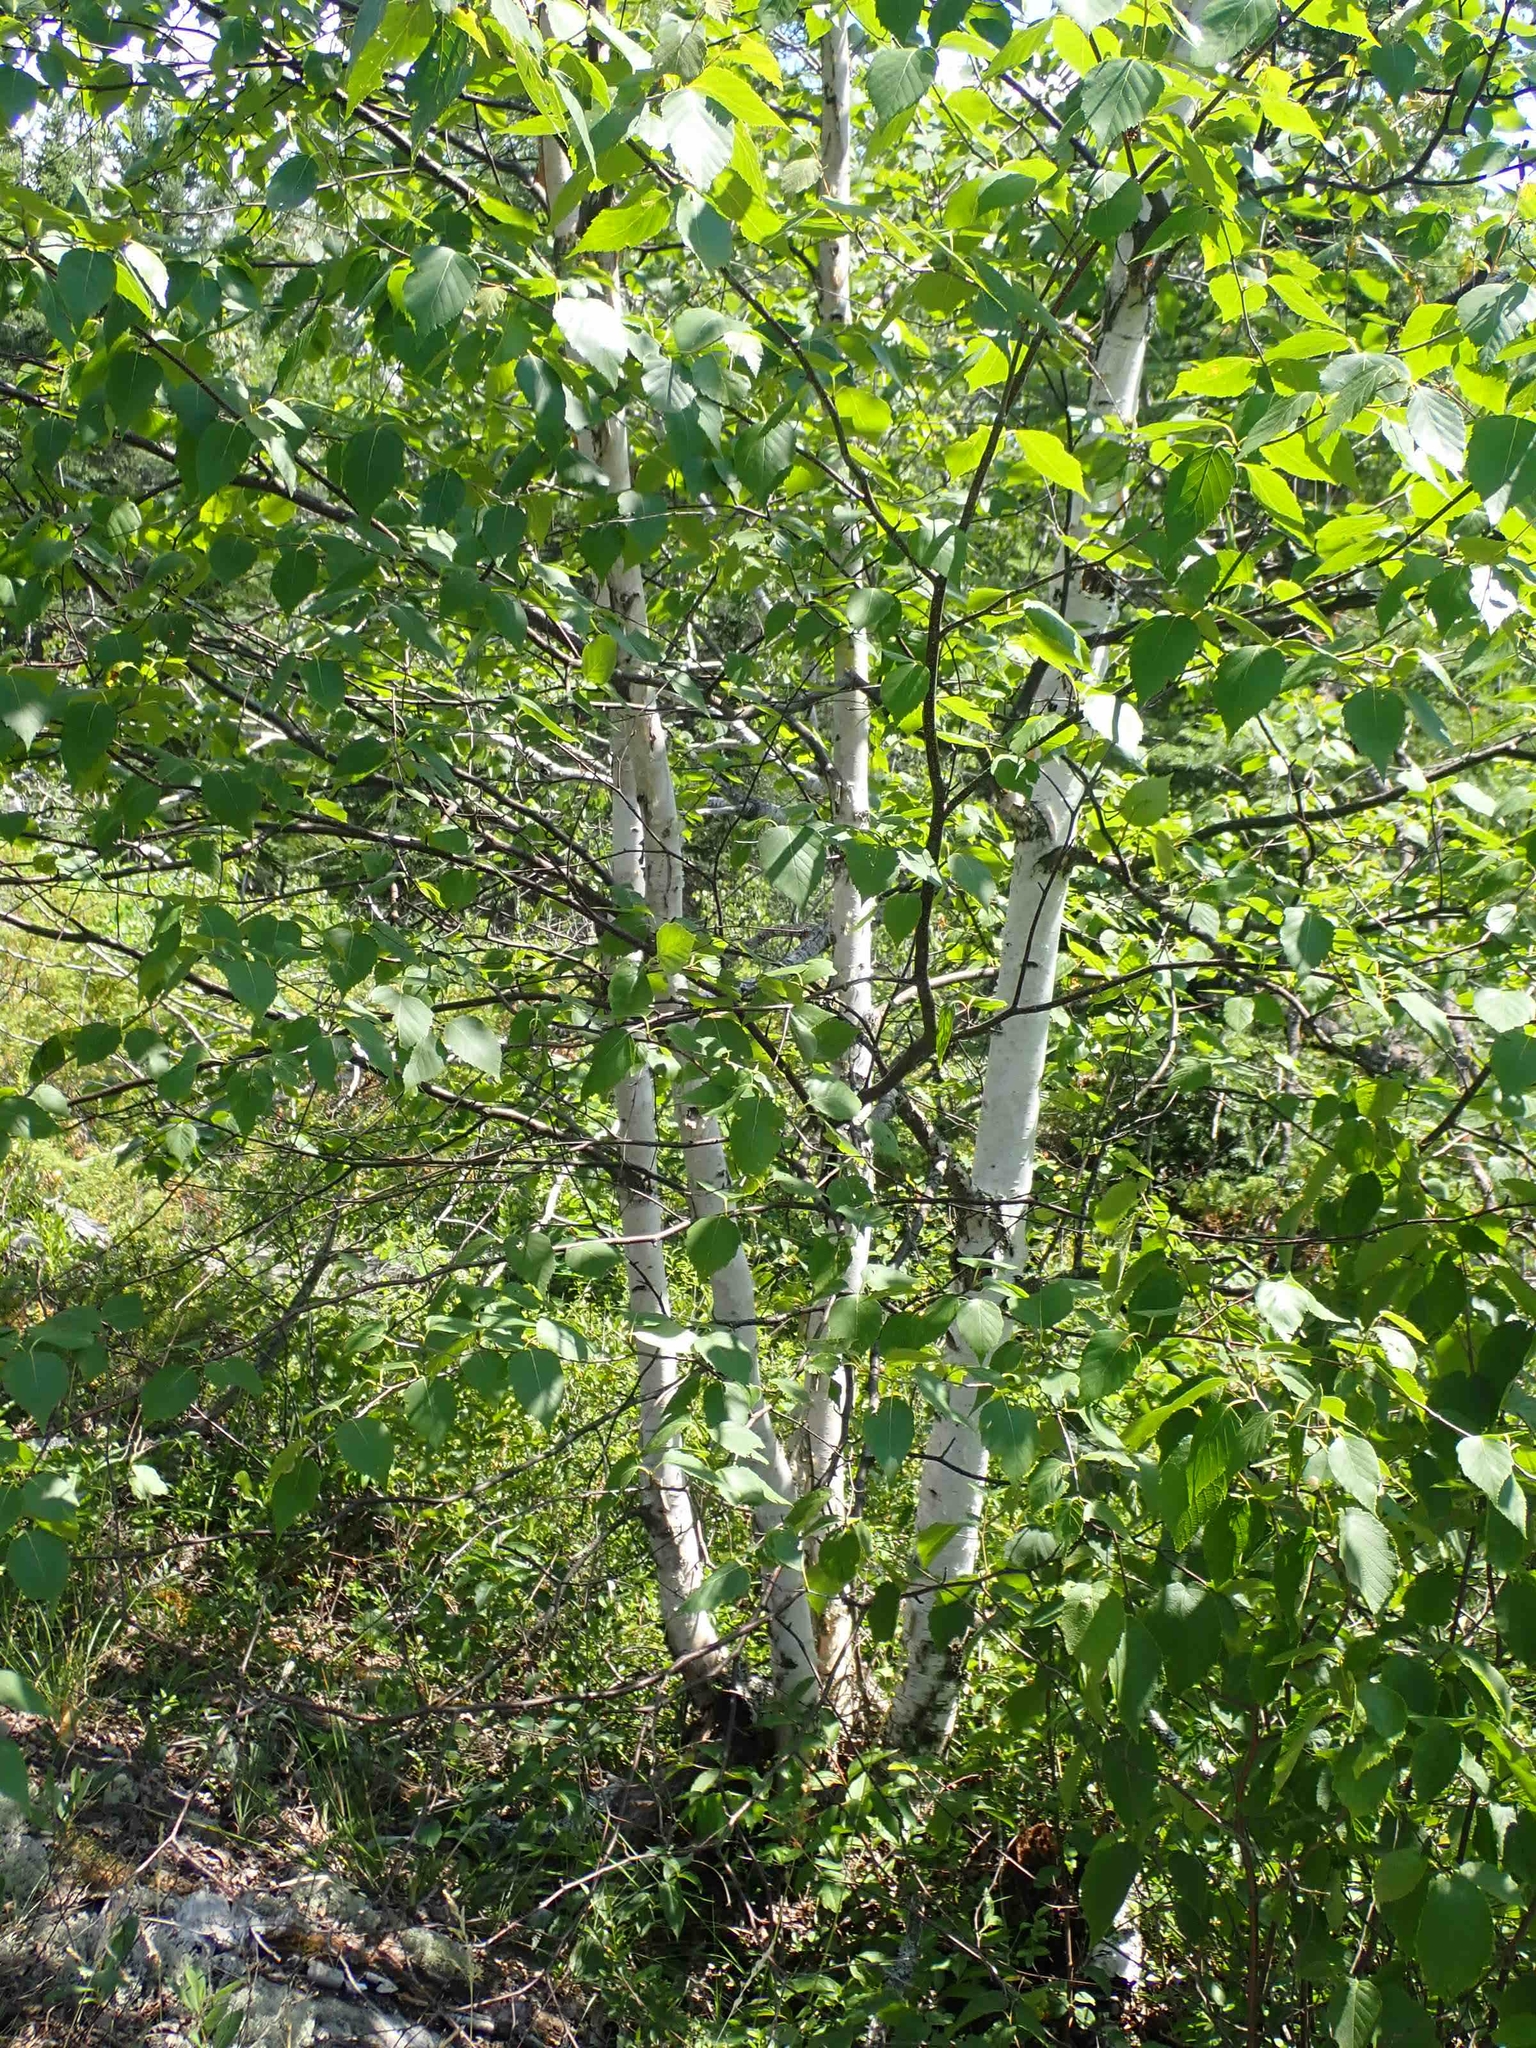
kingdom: Plantae
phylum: Tracheophyta
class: Magnoliopsida
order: Fagales
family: Betulaceae
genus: Betula
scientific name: Betula papyrifera
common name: Paper birch
